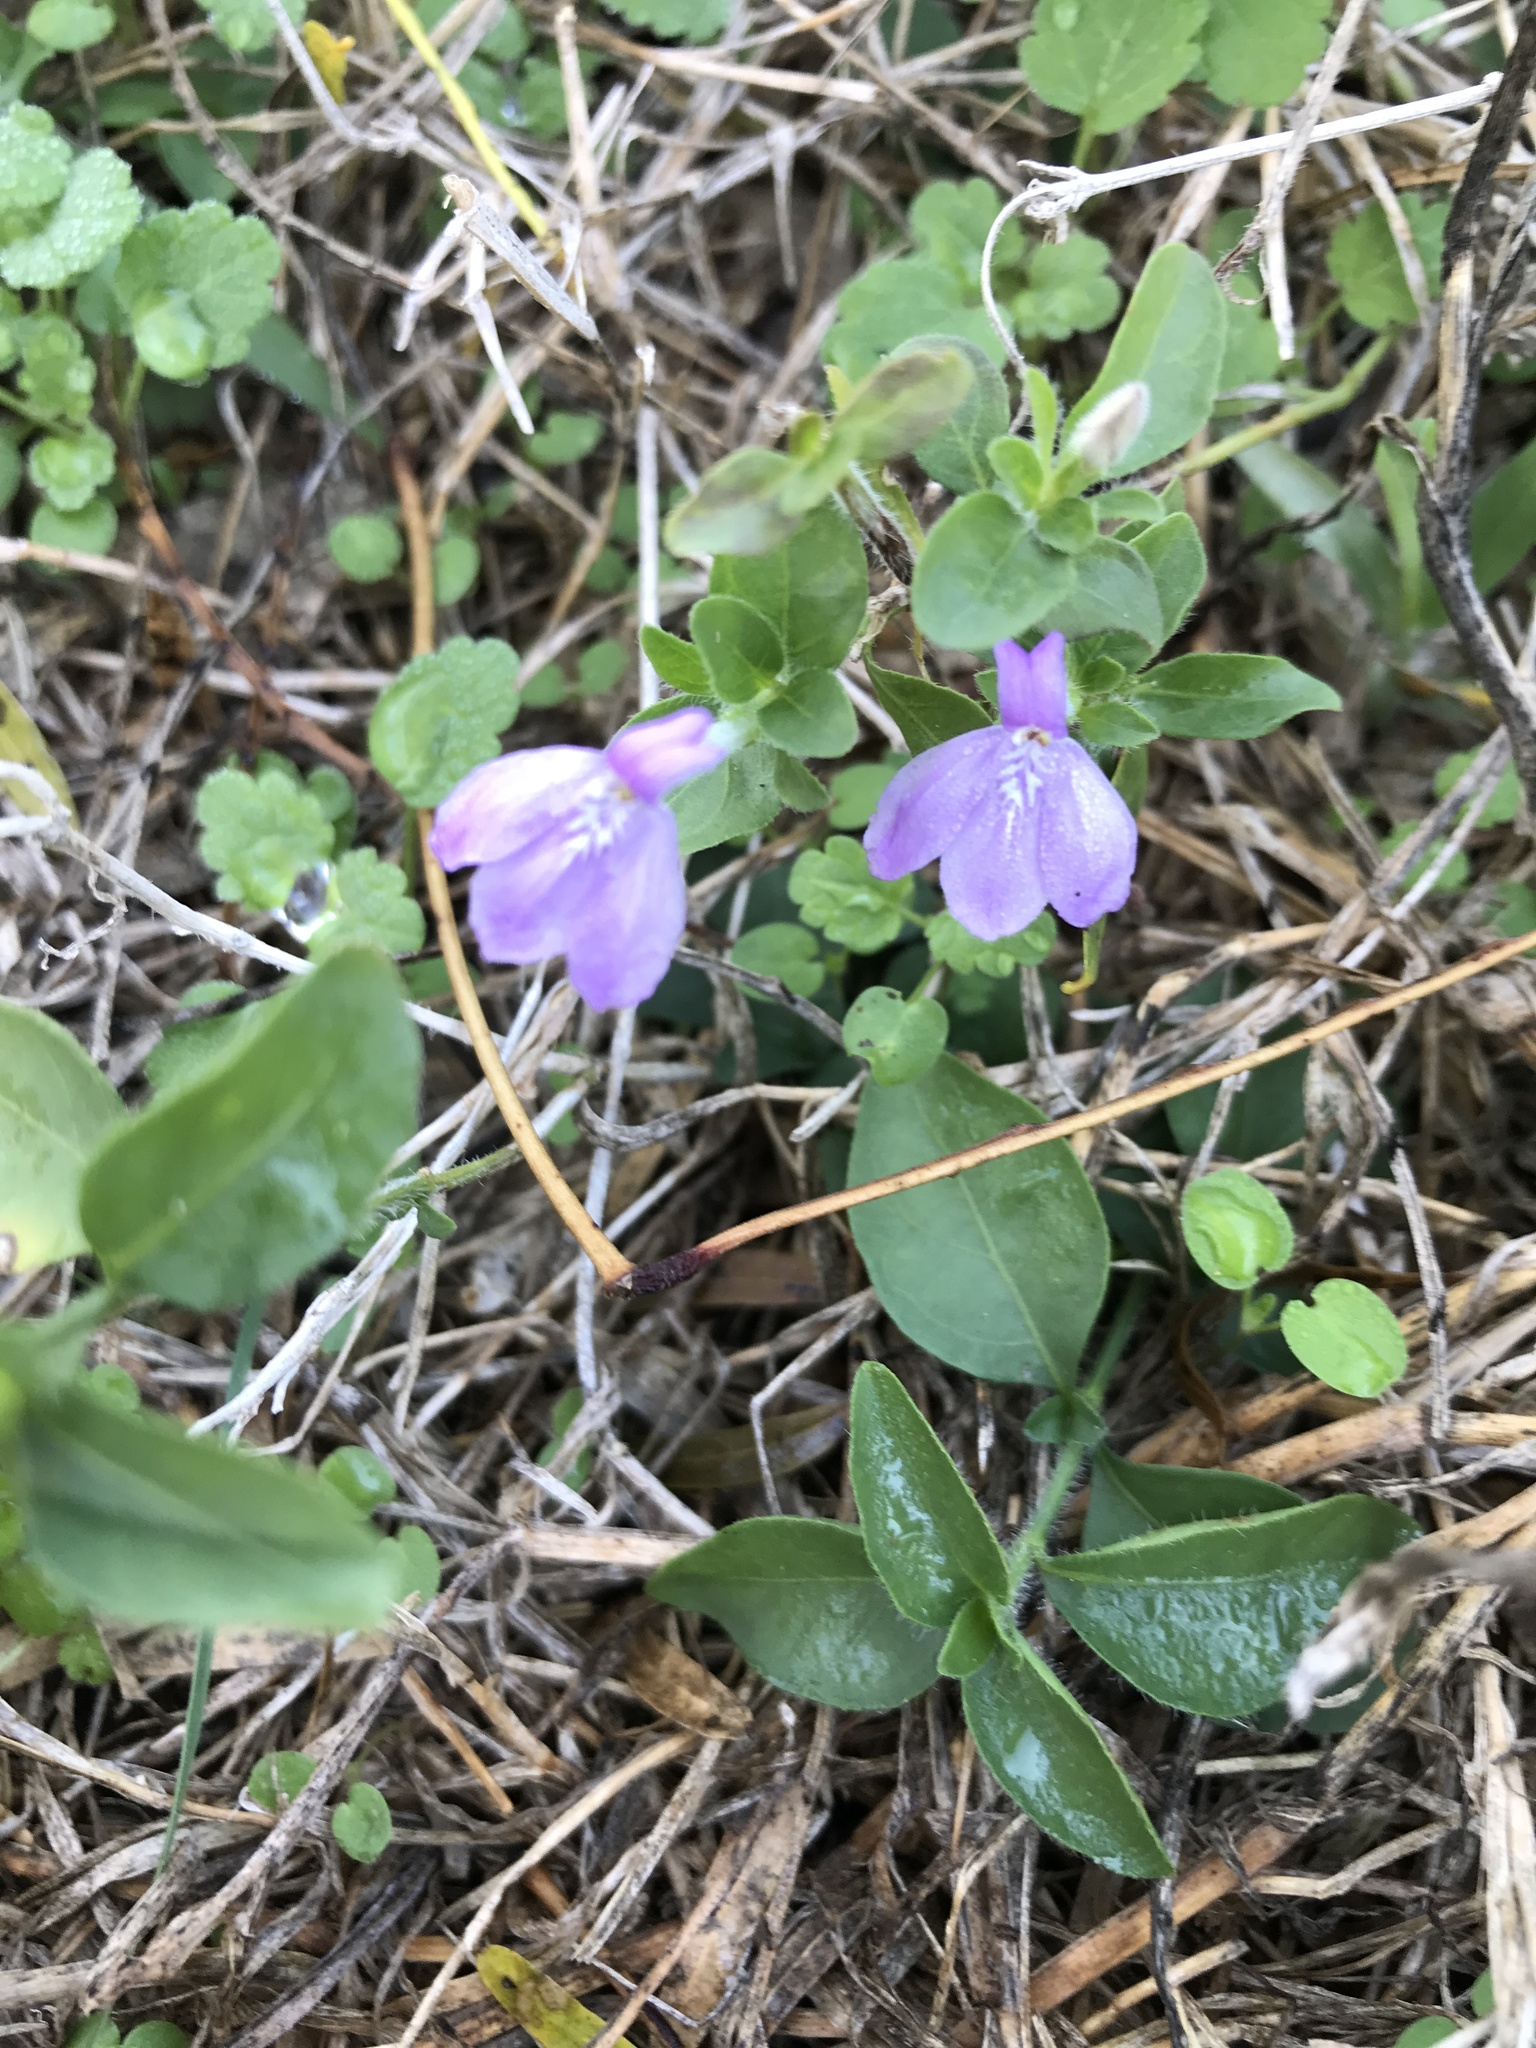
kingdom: Plantae
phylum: Tracheophyta
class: Magnoliopsida
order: Lamiales
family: Acanthaceae
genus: Justicia
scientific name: Justicia pilosella
